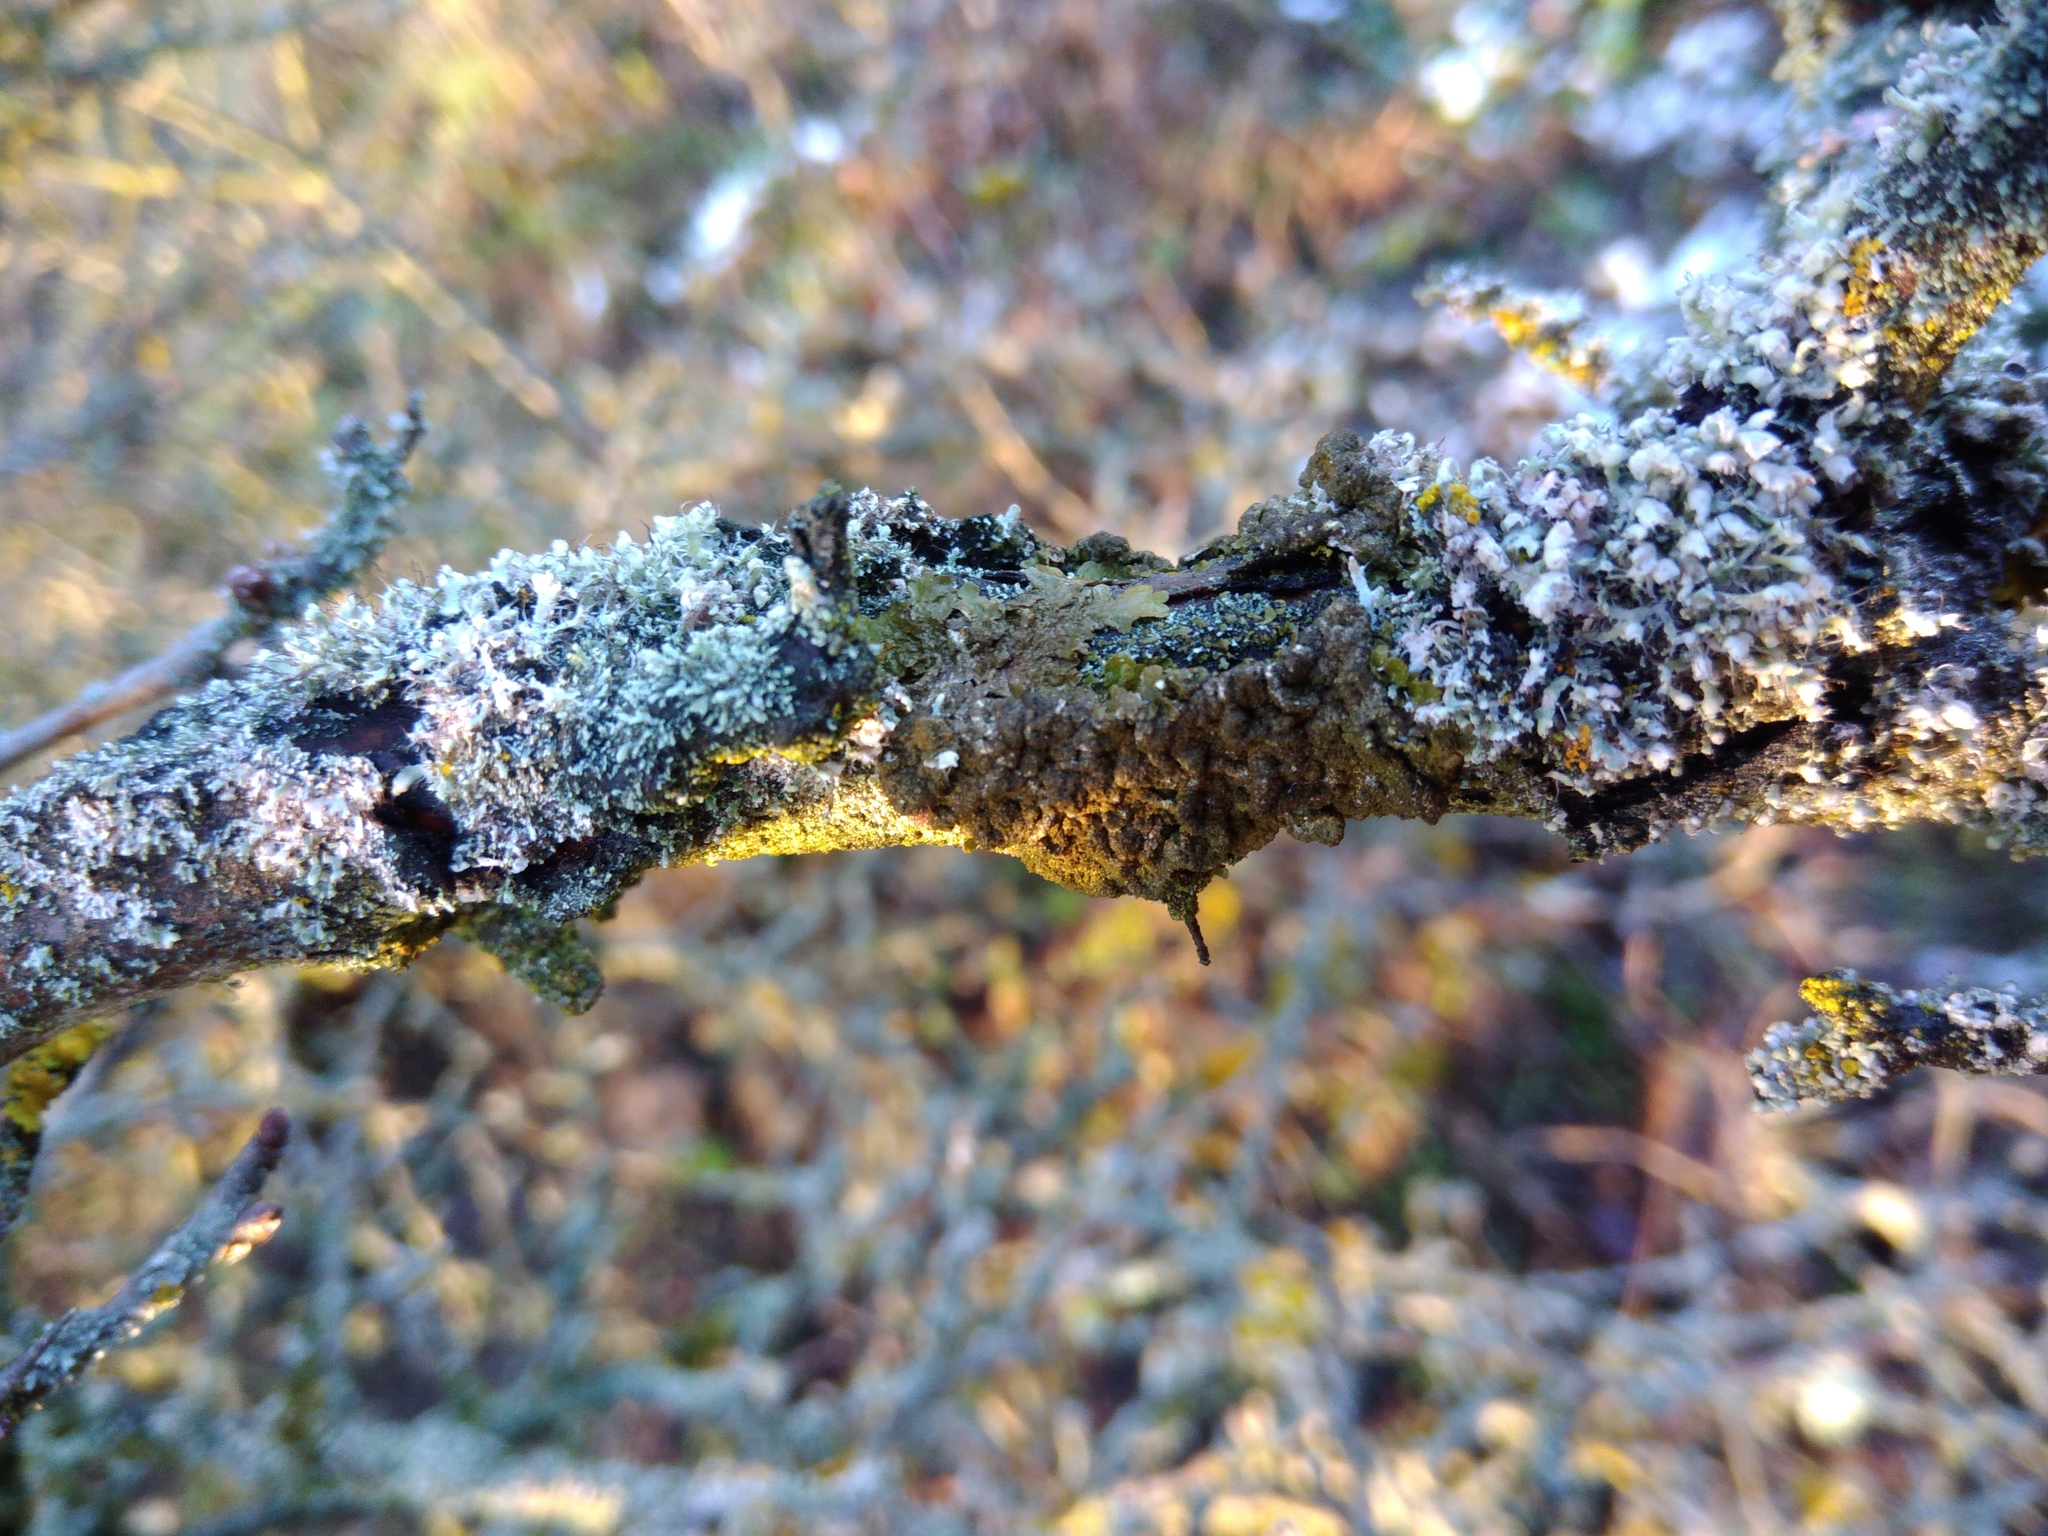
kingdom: Fungi
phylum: Ascomycota
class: Lecanoromycetes
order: Lecanorales
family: Parmeliaceae
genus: Melanelixia
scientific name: Melanelixia subaurifera
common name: Abraded camouflage lichen
